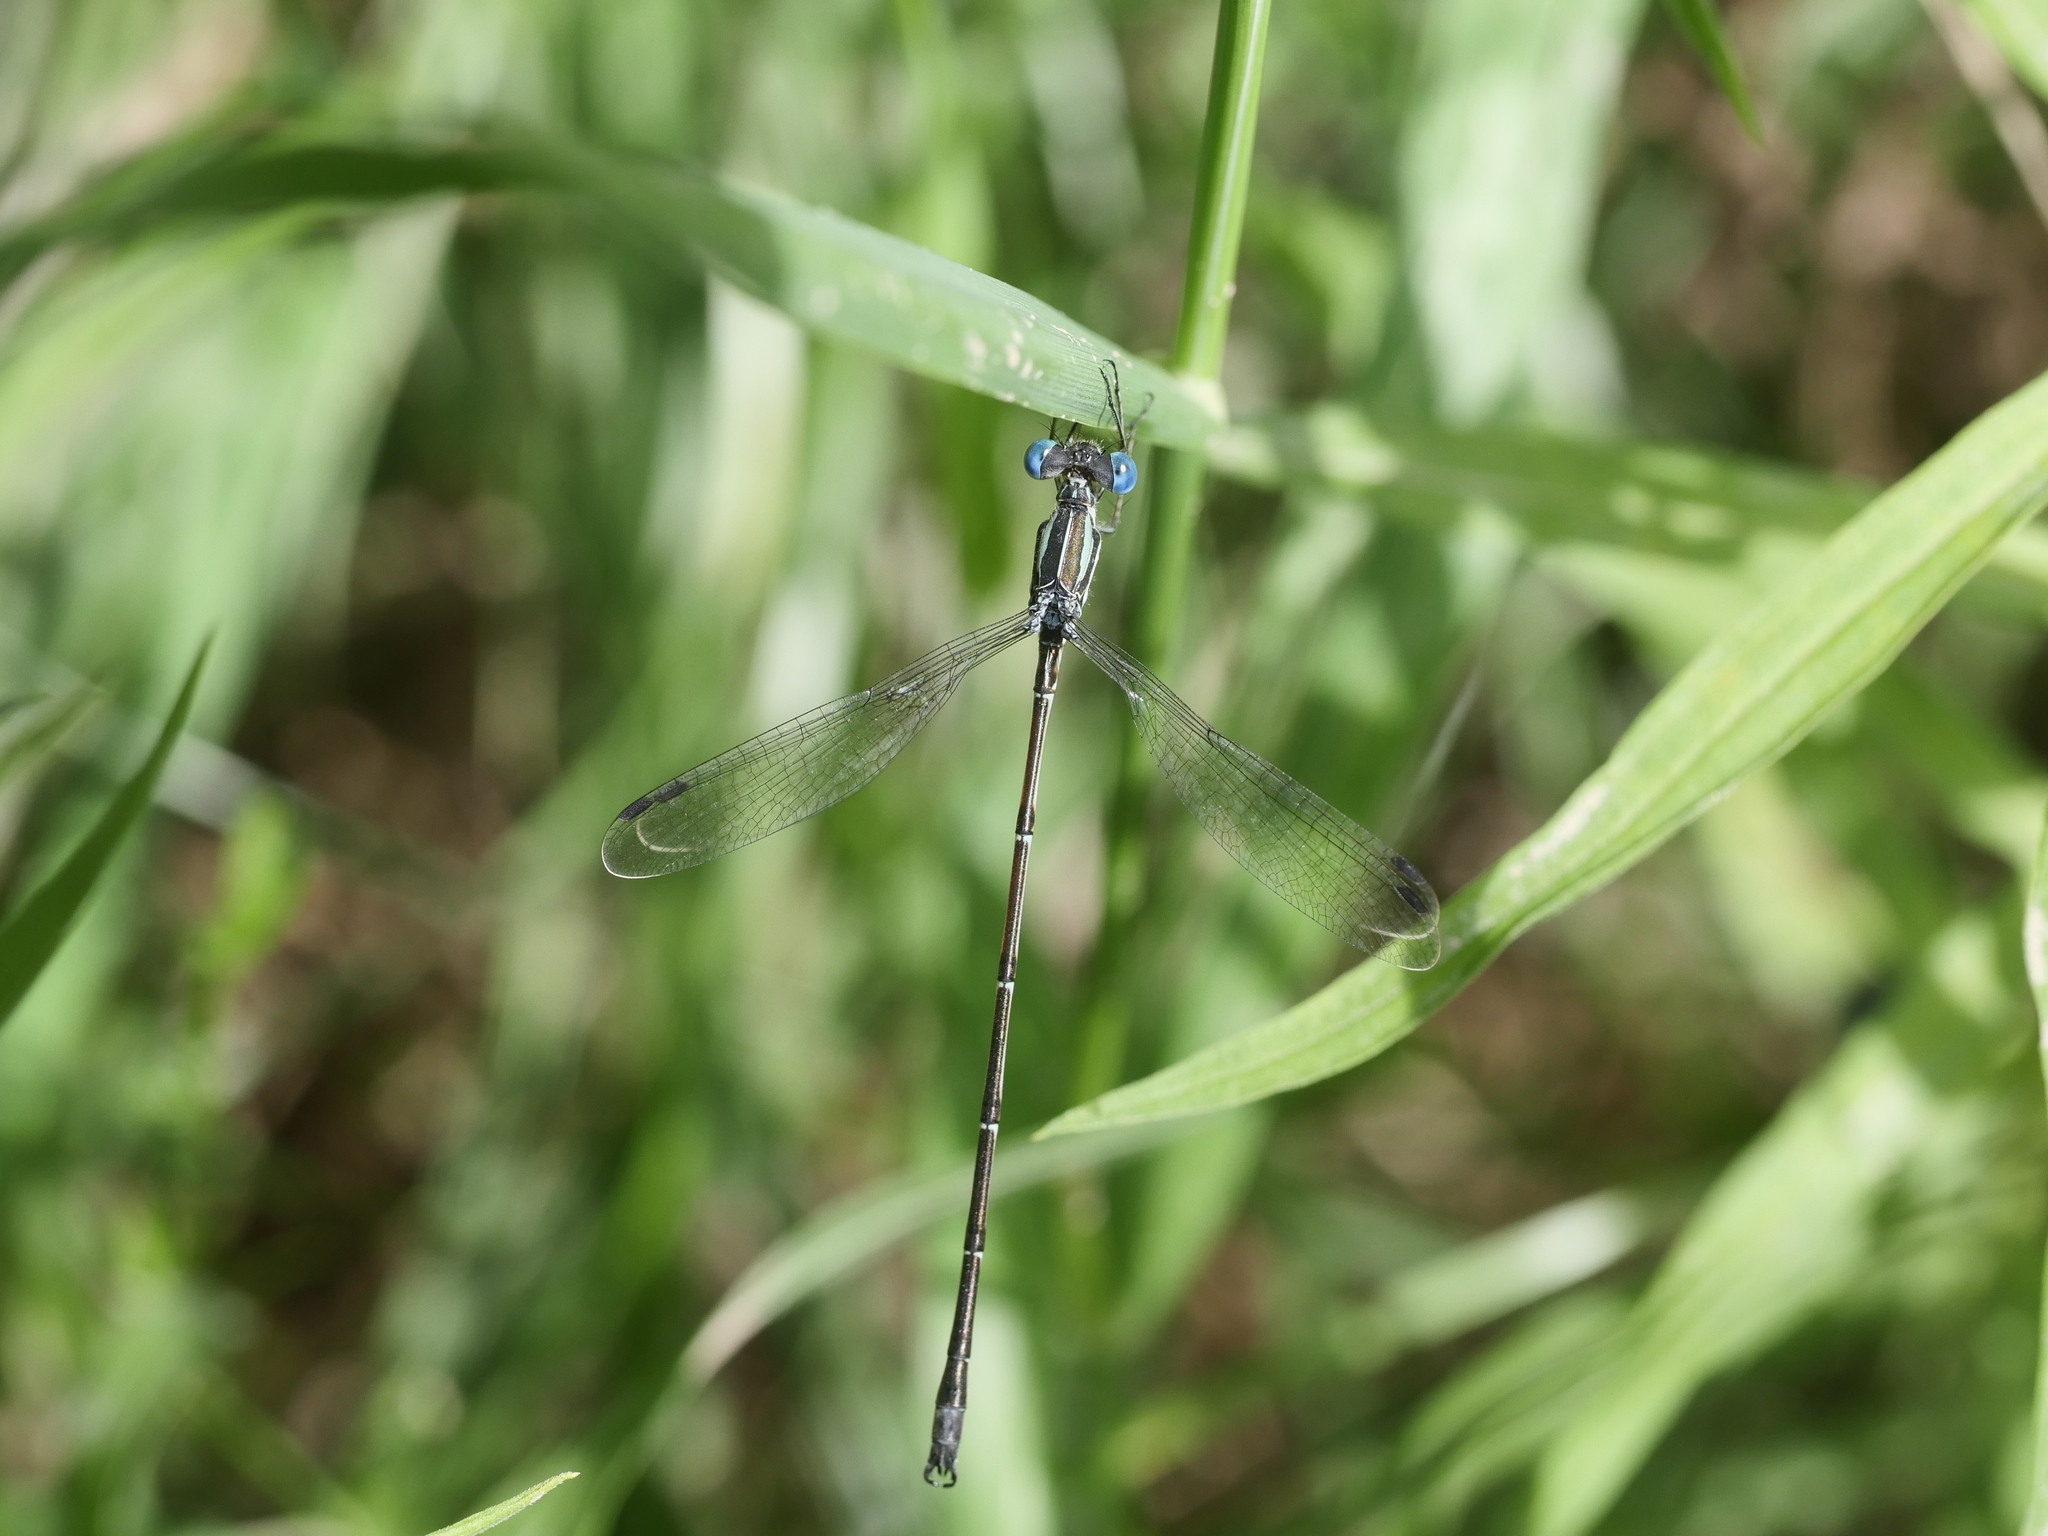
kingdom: Animalia
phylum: Arthropoda
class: Insecta
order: Odonata
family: Lestidae
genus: Lestes
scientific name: Lestes rectangularis
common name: Slender spreadwing
